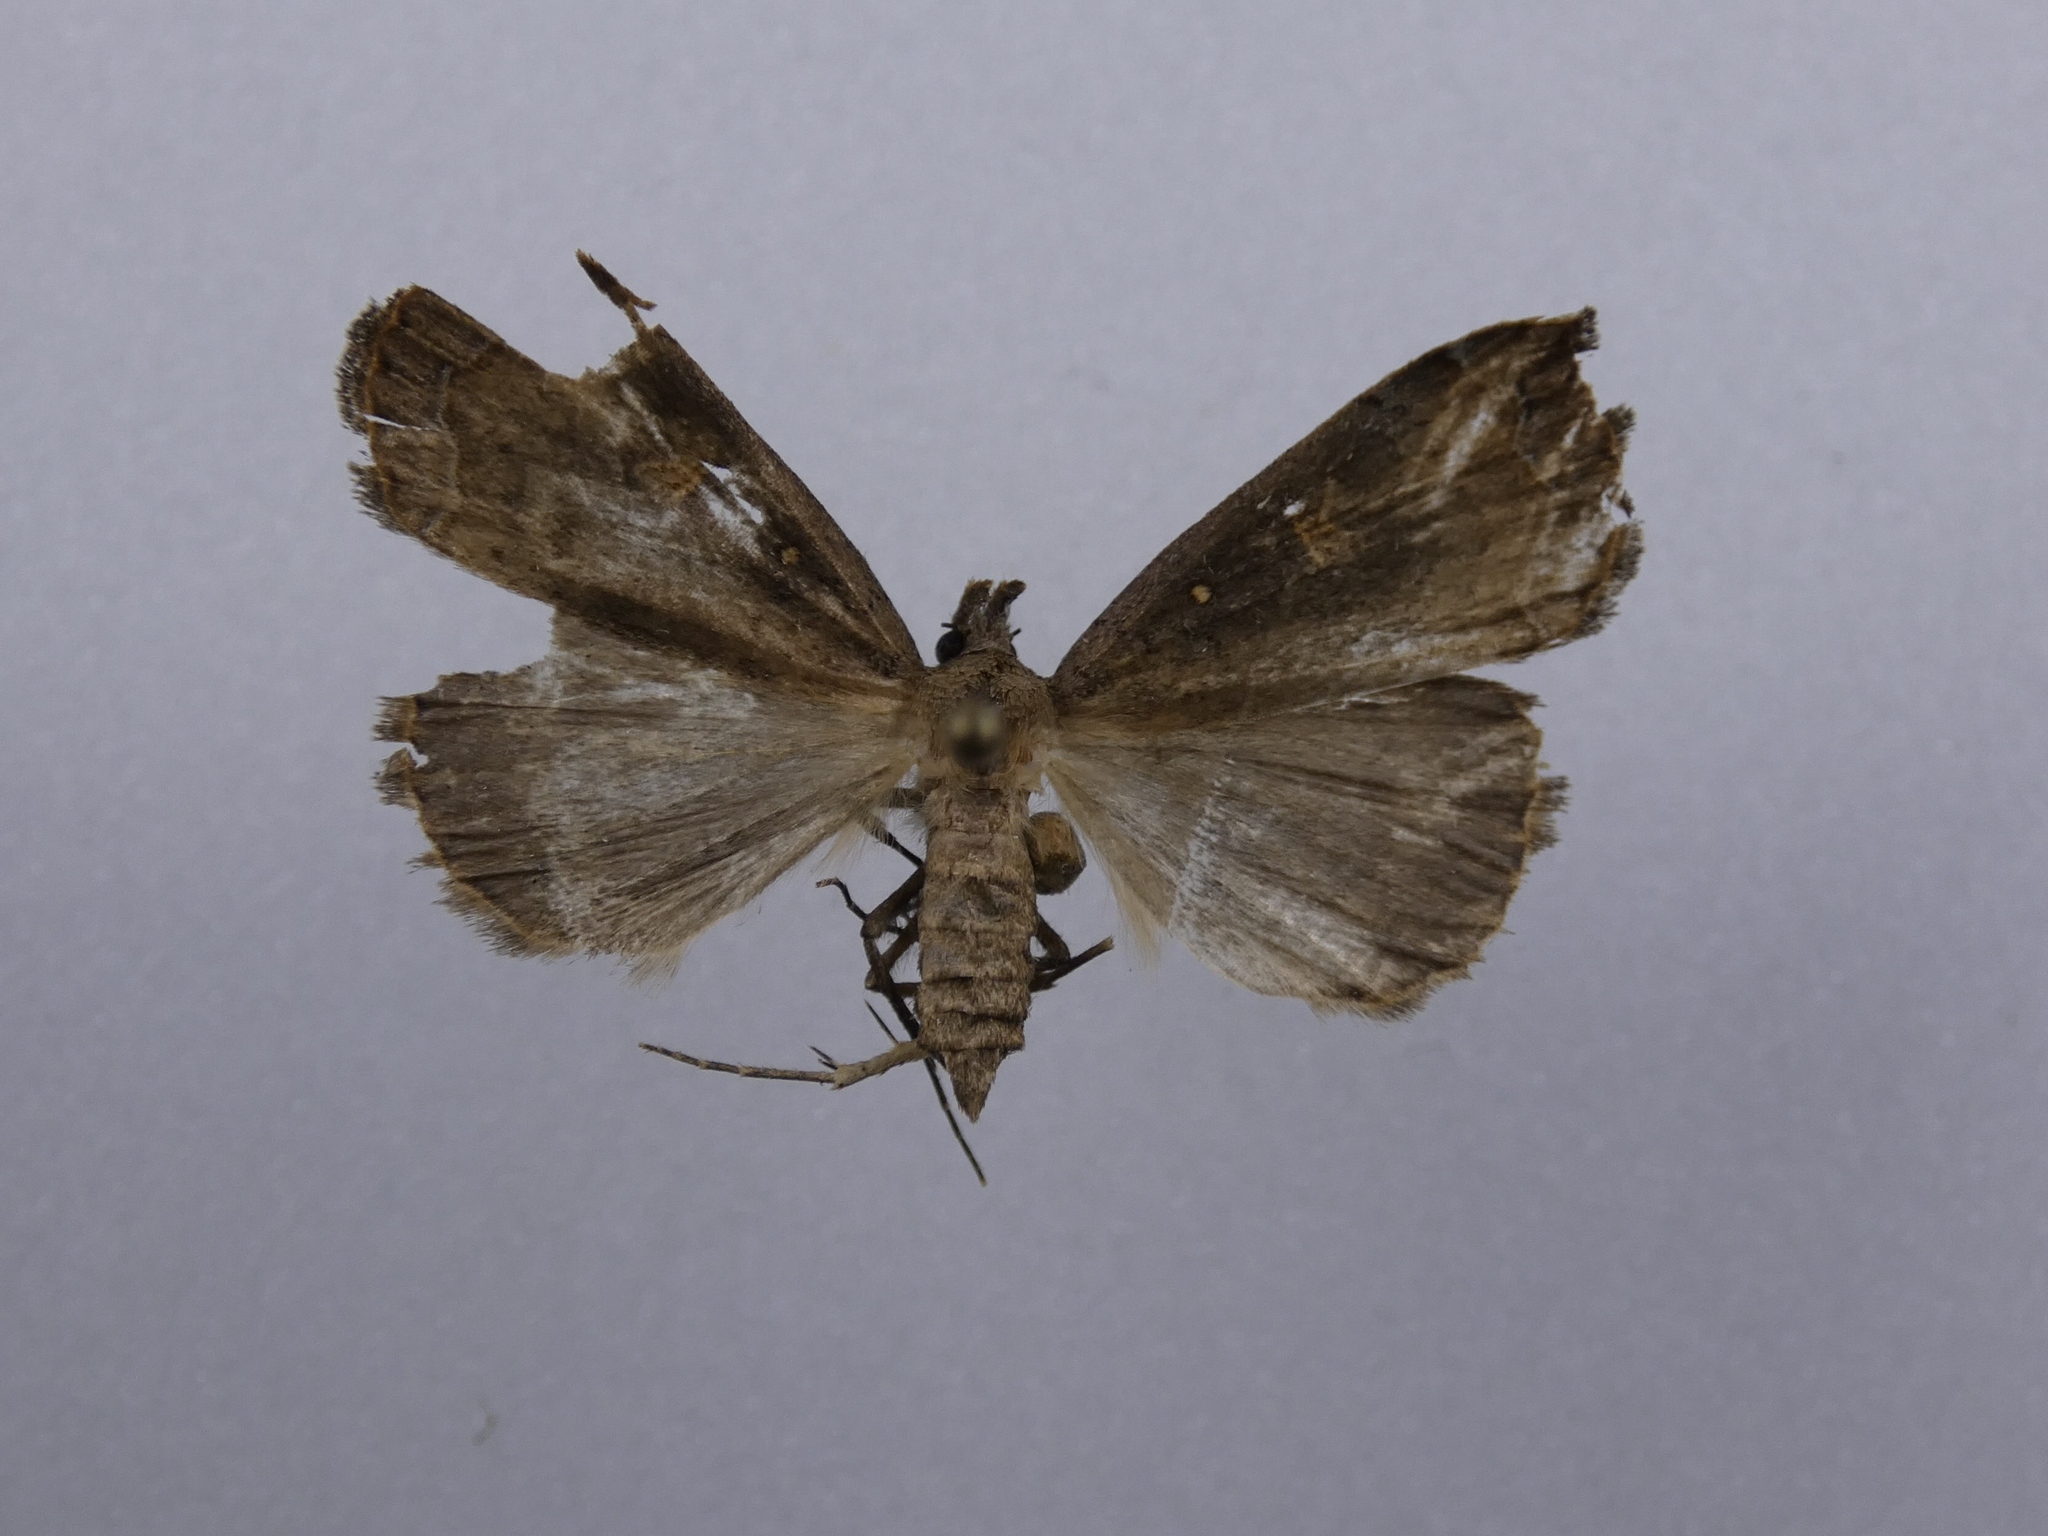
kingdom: Animalia
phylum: Arthropoda
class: Insecta
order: Lepidoptera
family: Erebidae
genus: Rhapsa
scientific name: Rhapsa scotosialis
